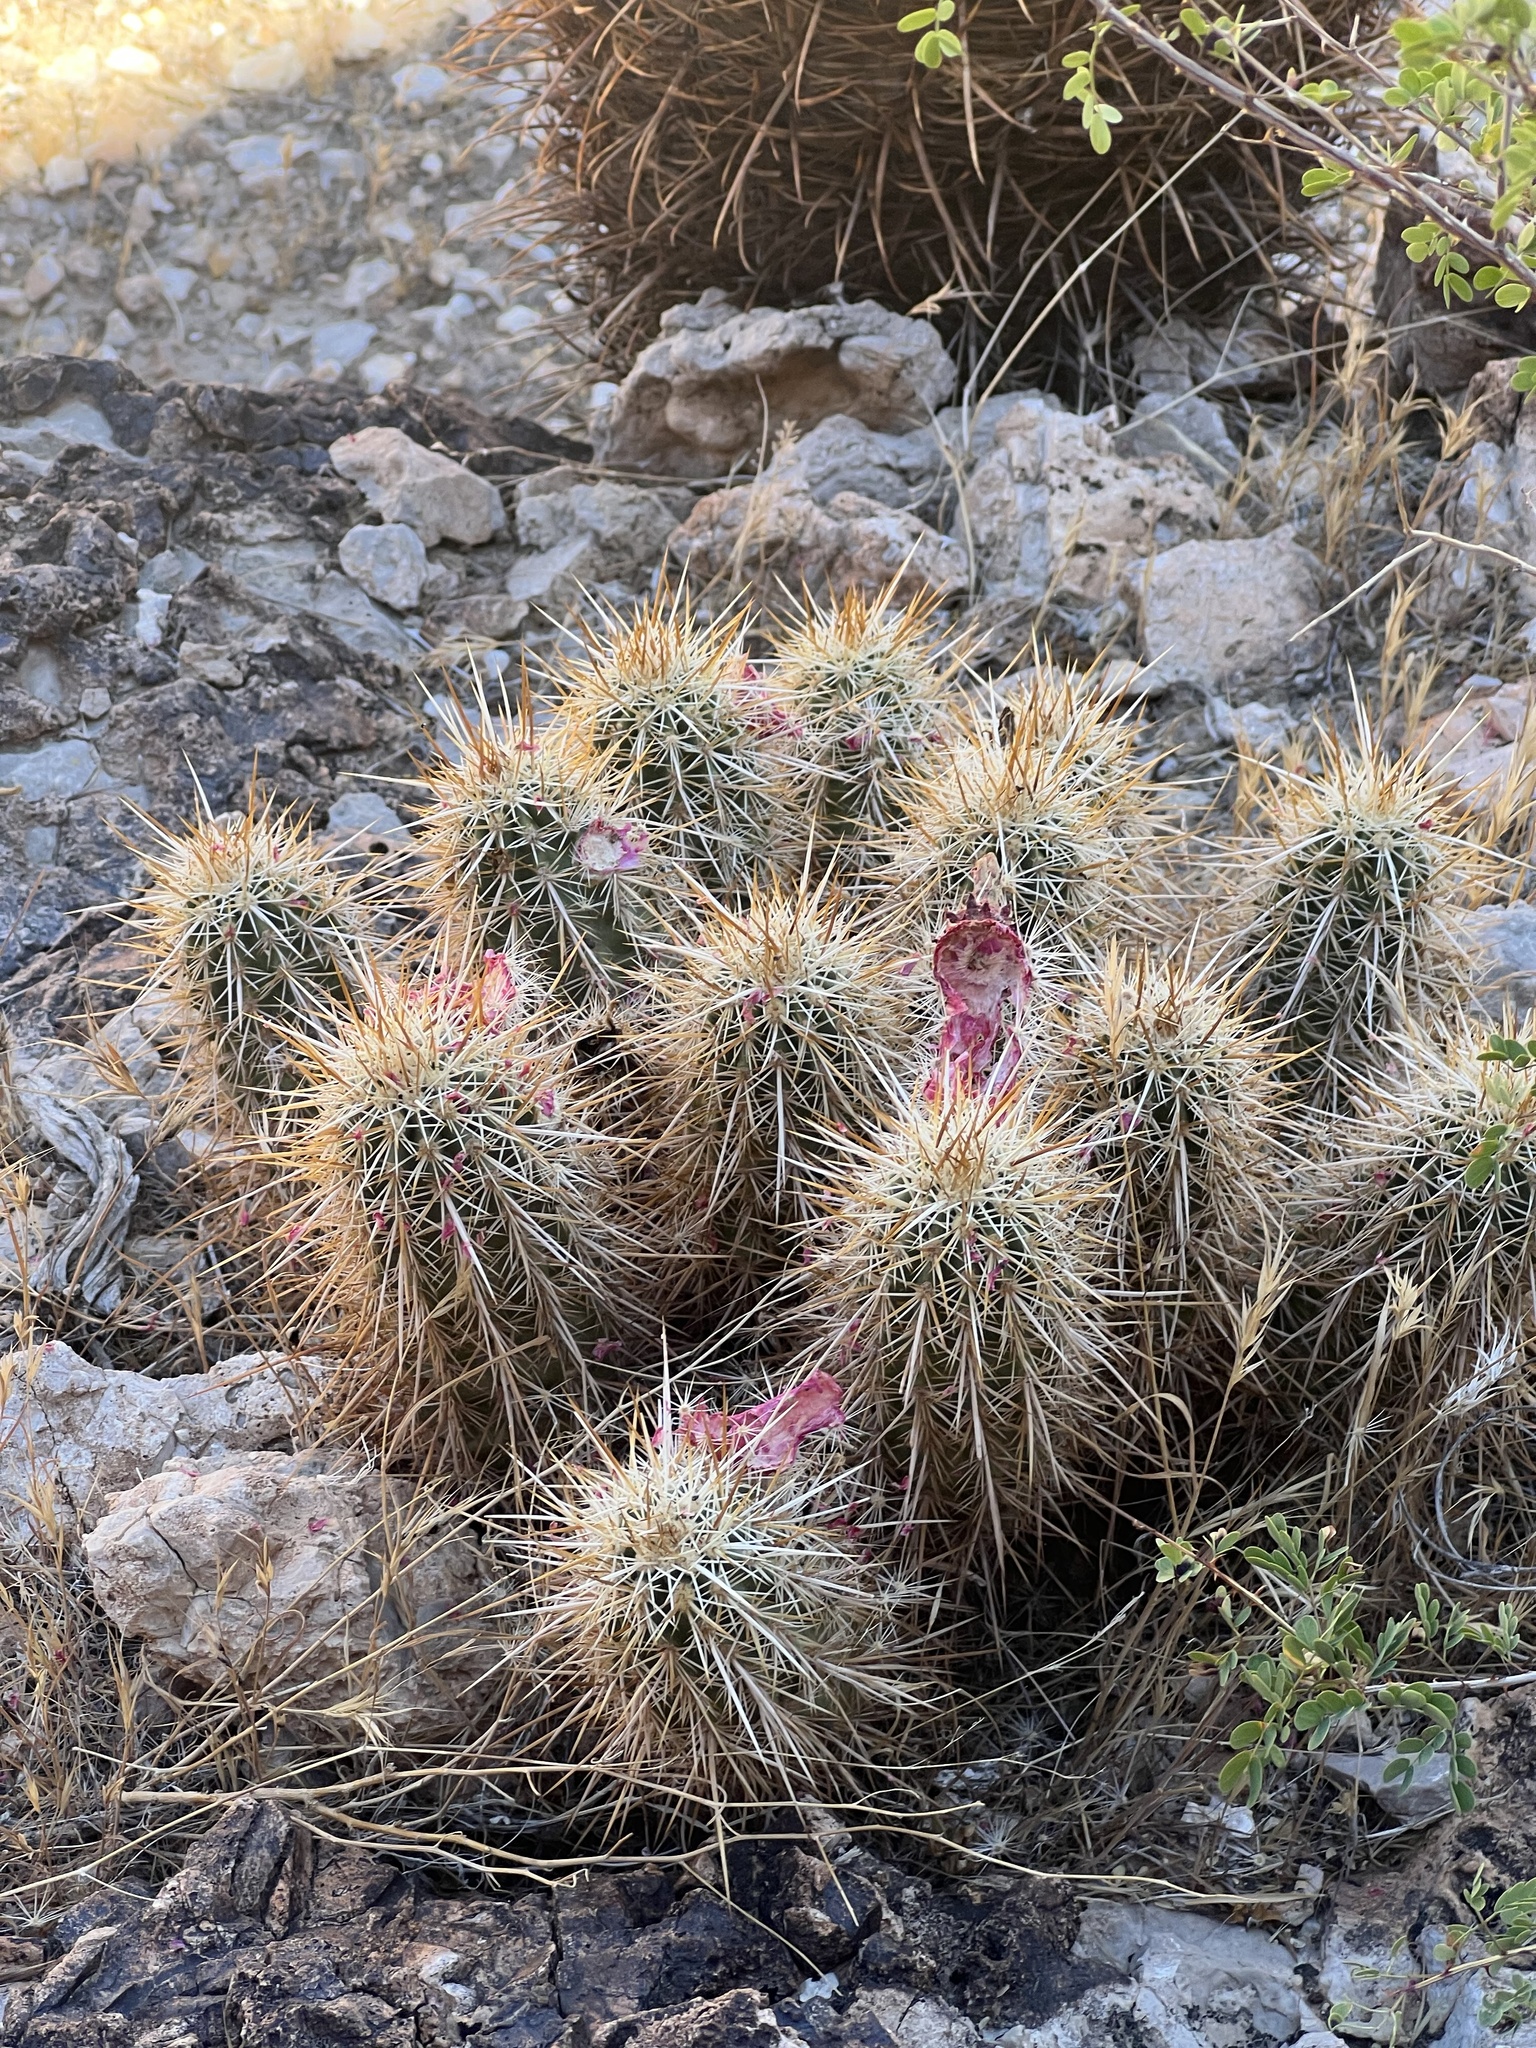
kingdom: Plantae
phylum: Tracheophyta
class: Magnoliopsida
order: Caryophyllales
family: Cactaceae
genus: Echinocereus
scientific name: Echinocereus engelmannii
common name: Engelmann's hedgehog cactus
